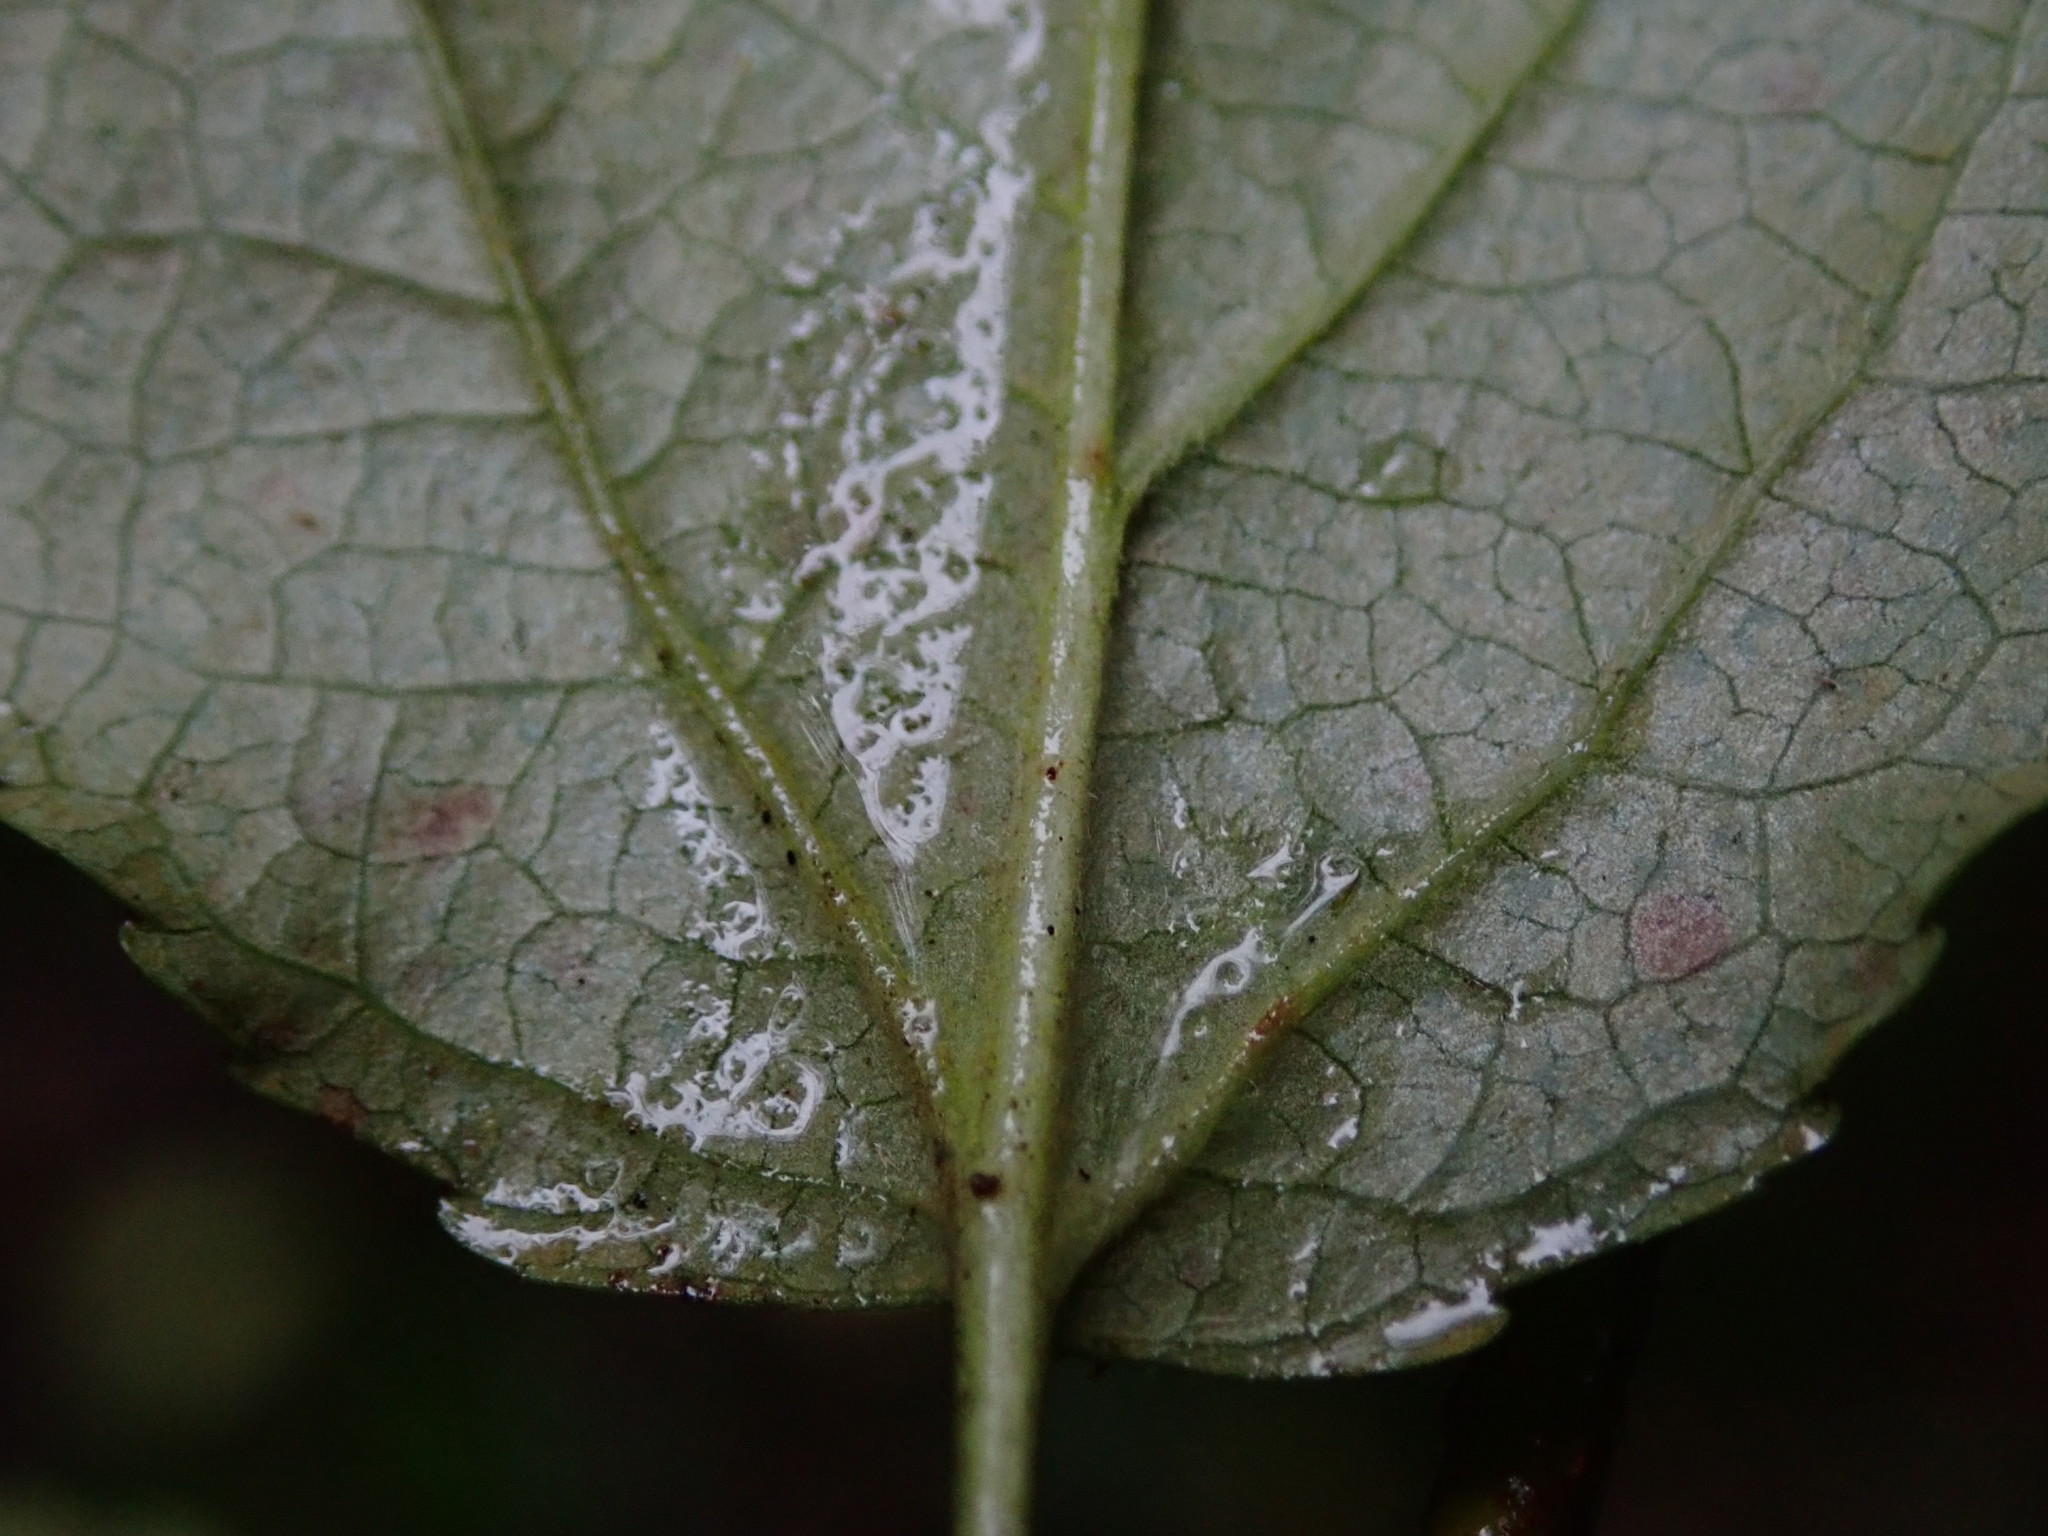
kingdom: Plantae
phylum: Tracheophyta
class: Magnoliopsida
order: Rosales
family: Rosaceae
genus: Malus
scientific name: Malus sylvestris
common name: Crab apple
